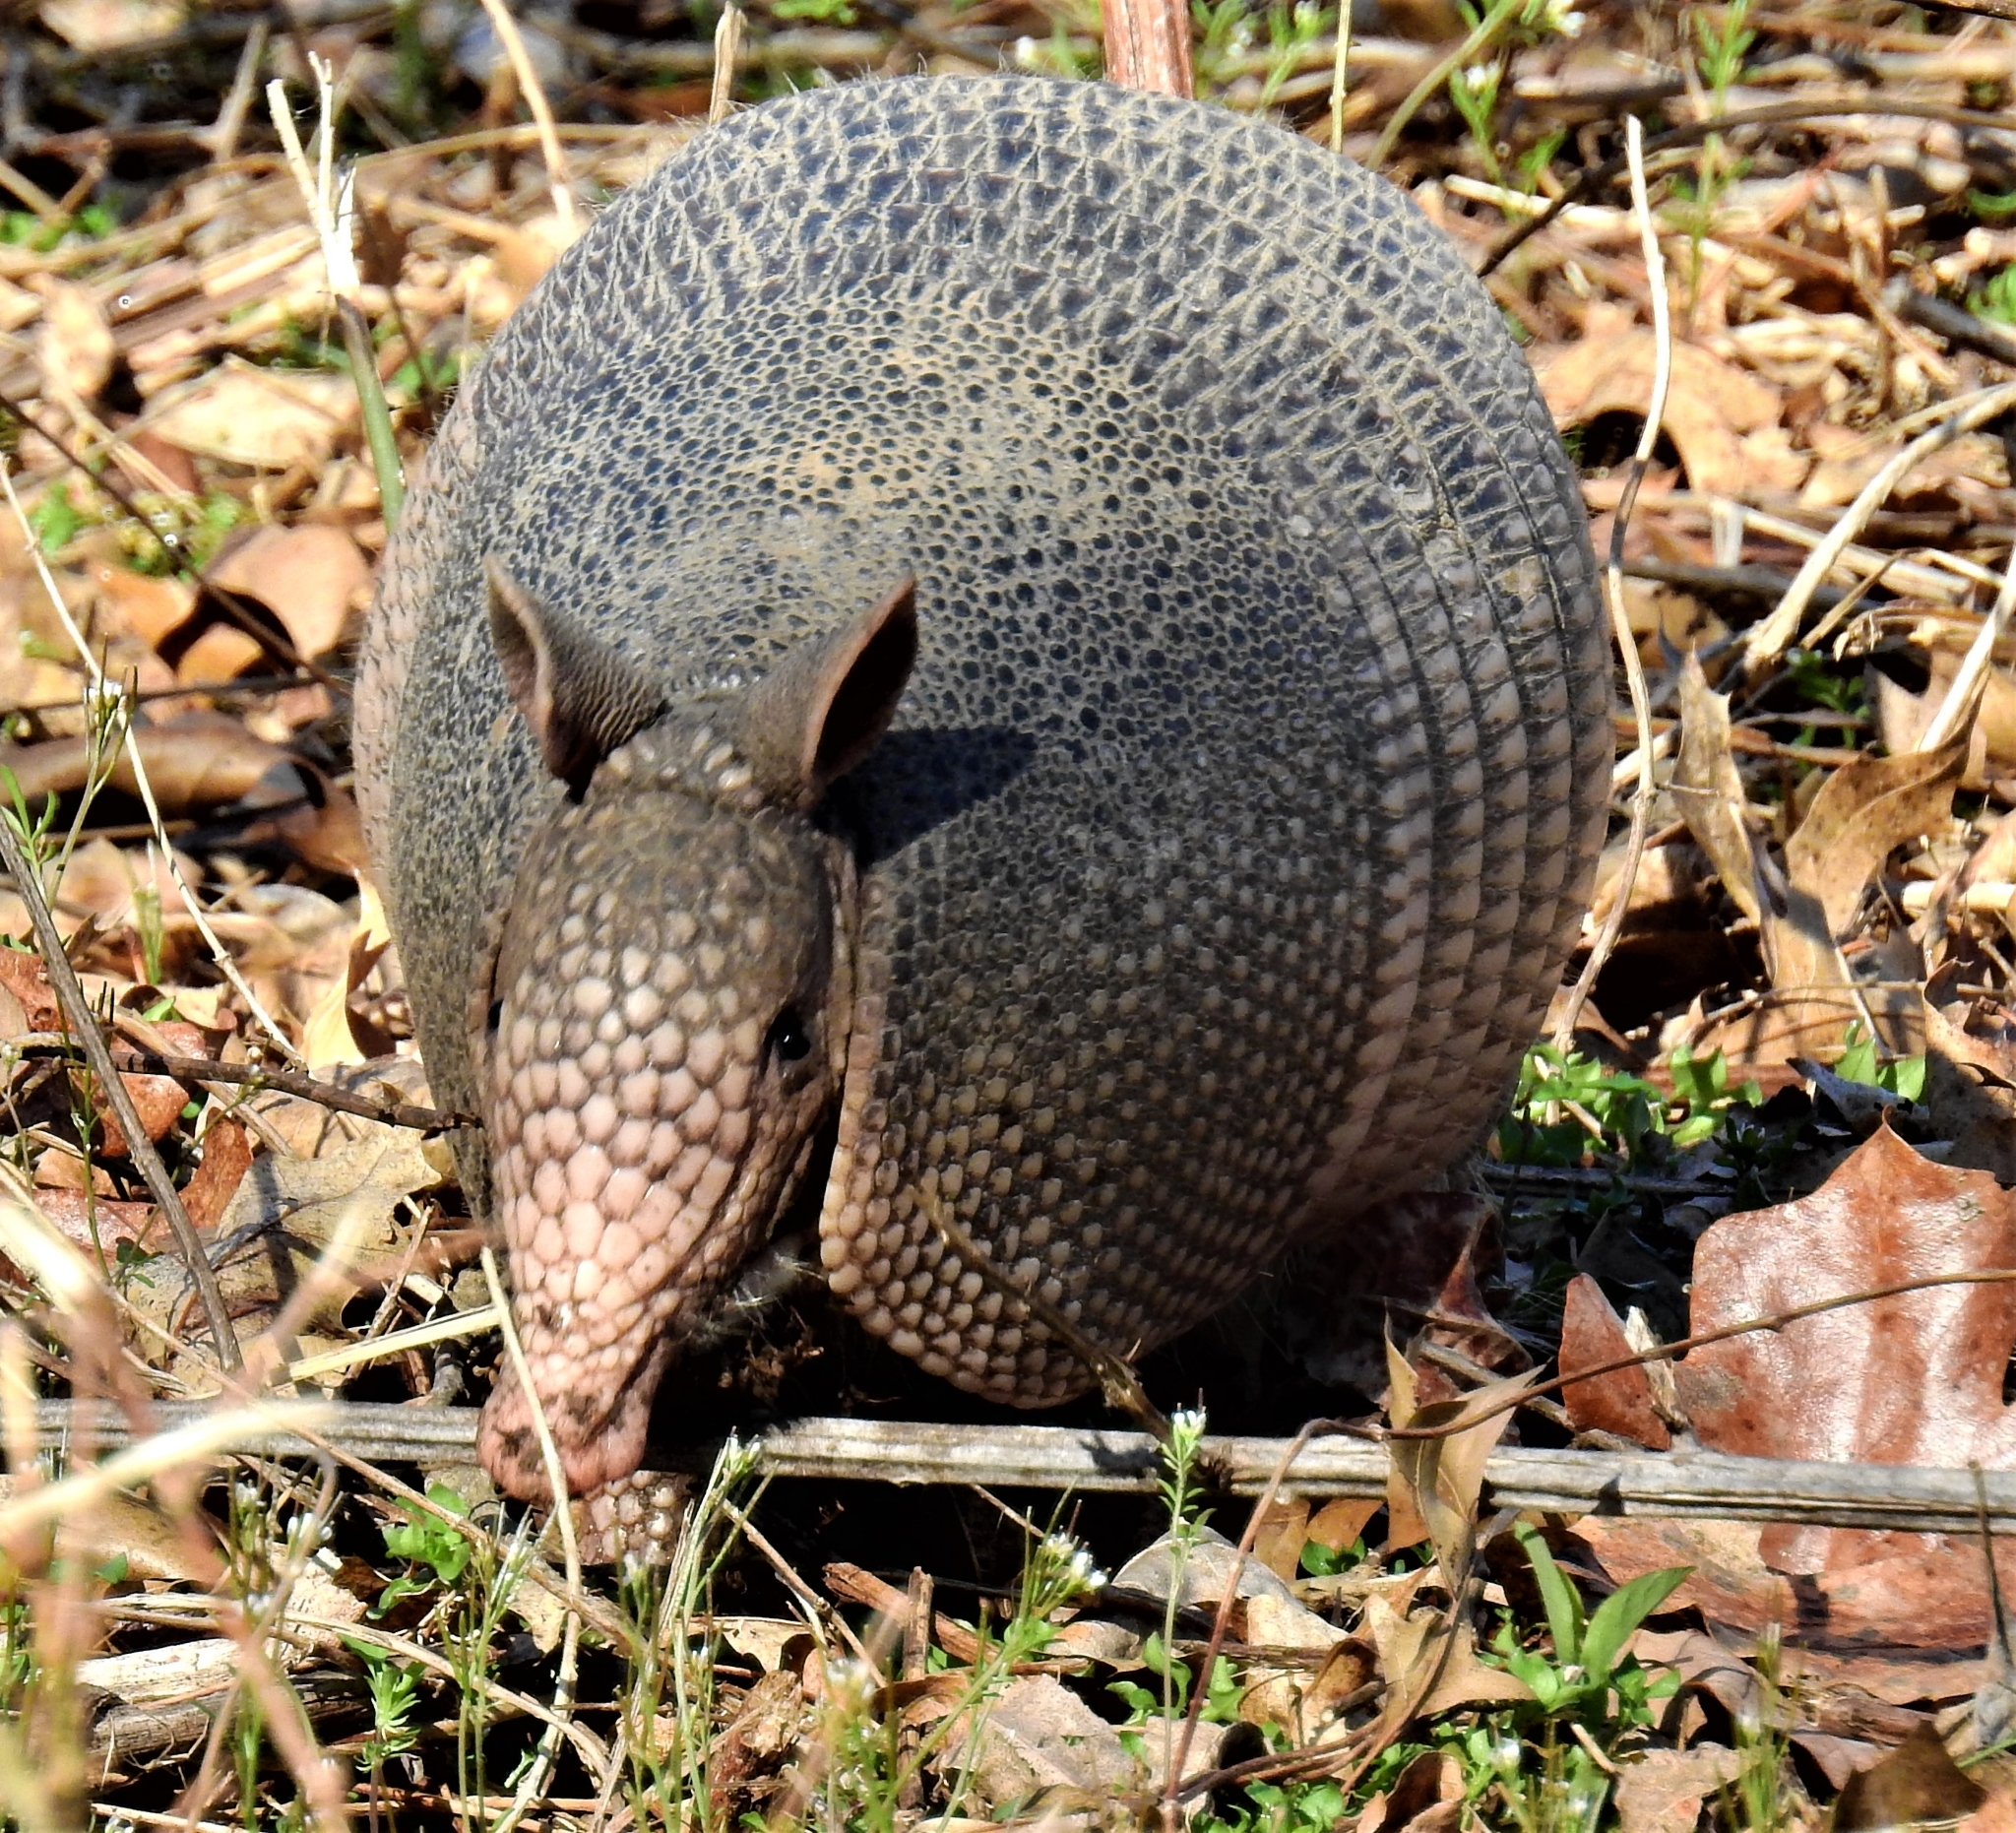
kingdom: Animalia
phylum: Chordata
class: Mammalia
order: Cingulata
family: Dasypodidae
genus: Dasypus
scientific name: Dasypus novemcinctus
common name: Nine-banded armadillo
